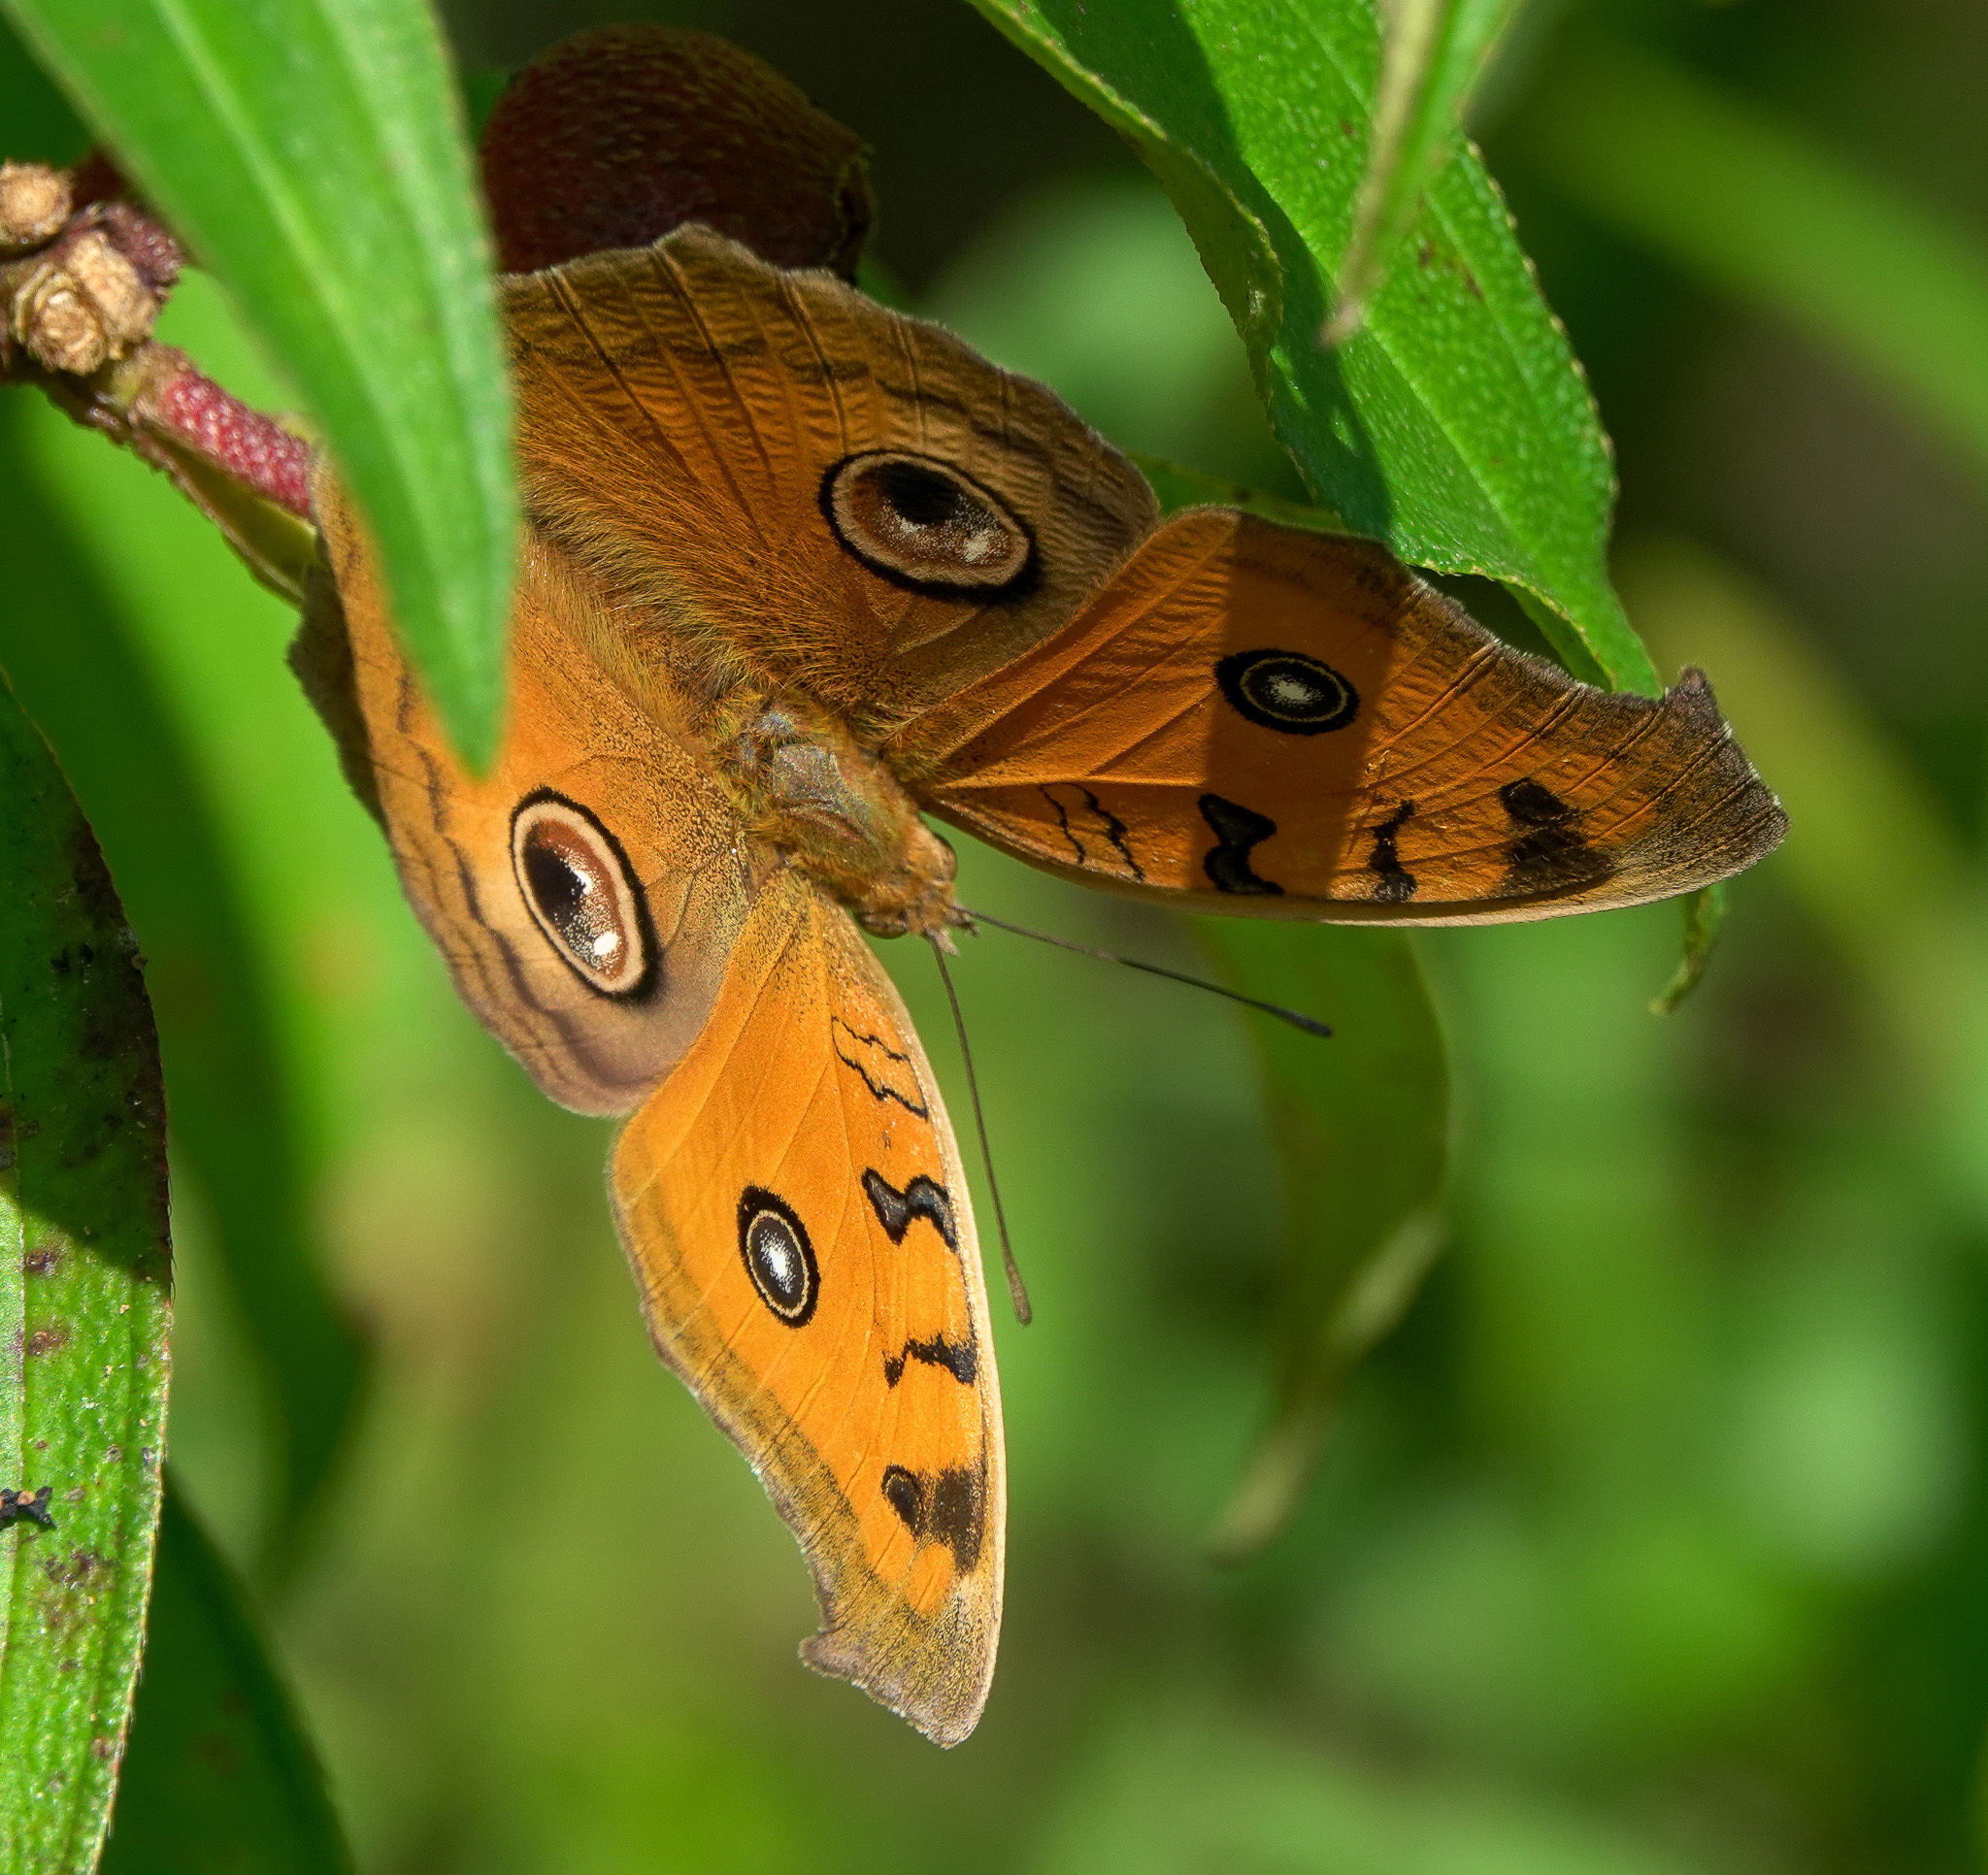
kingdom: Animalia
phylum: Arthropoda
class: Insecta
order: Lepidoptera
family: Nymphalidae
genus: Junonia
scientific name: Junonia almana
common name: Peacock pansy
